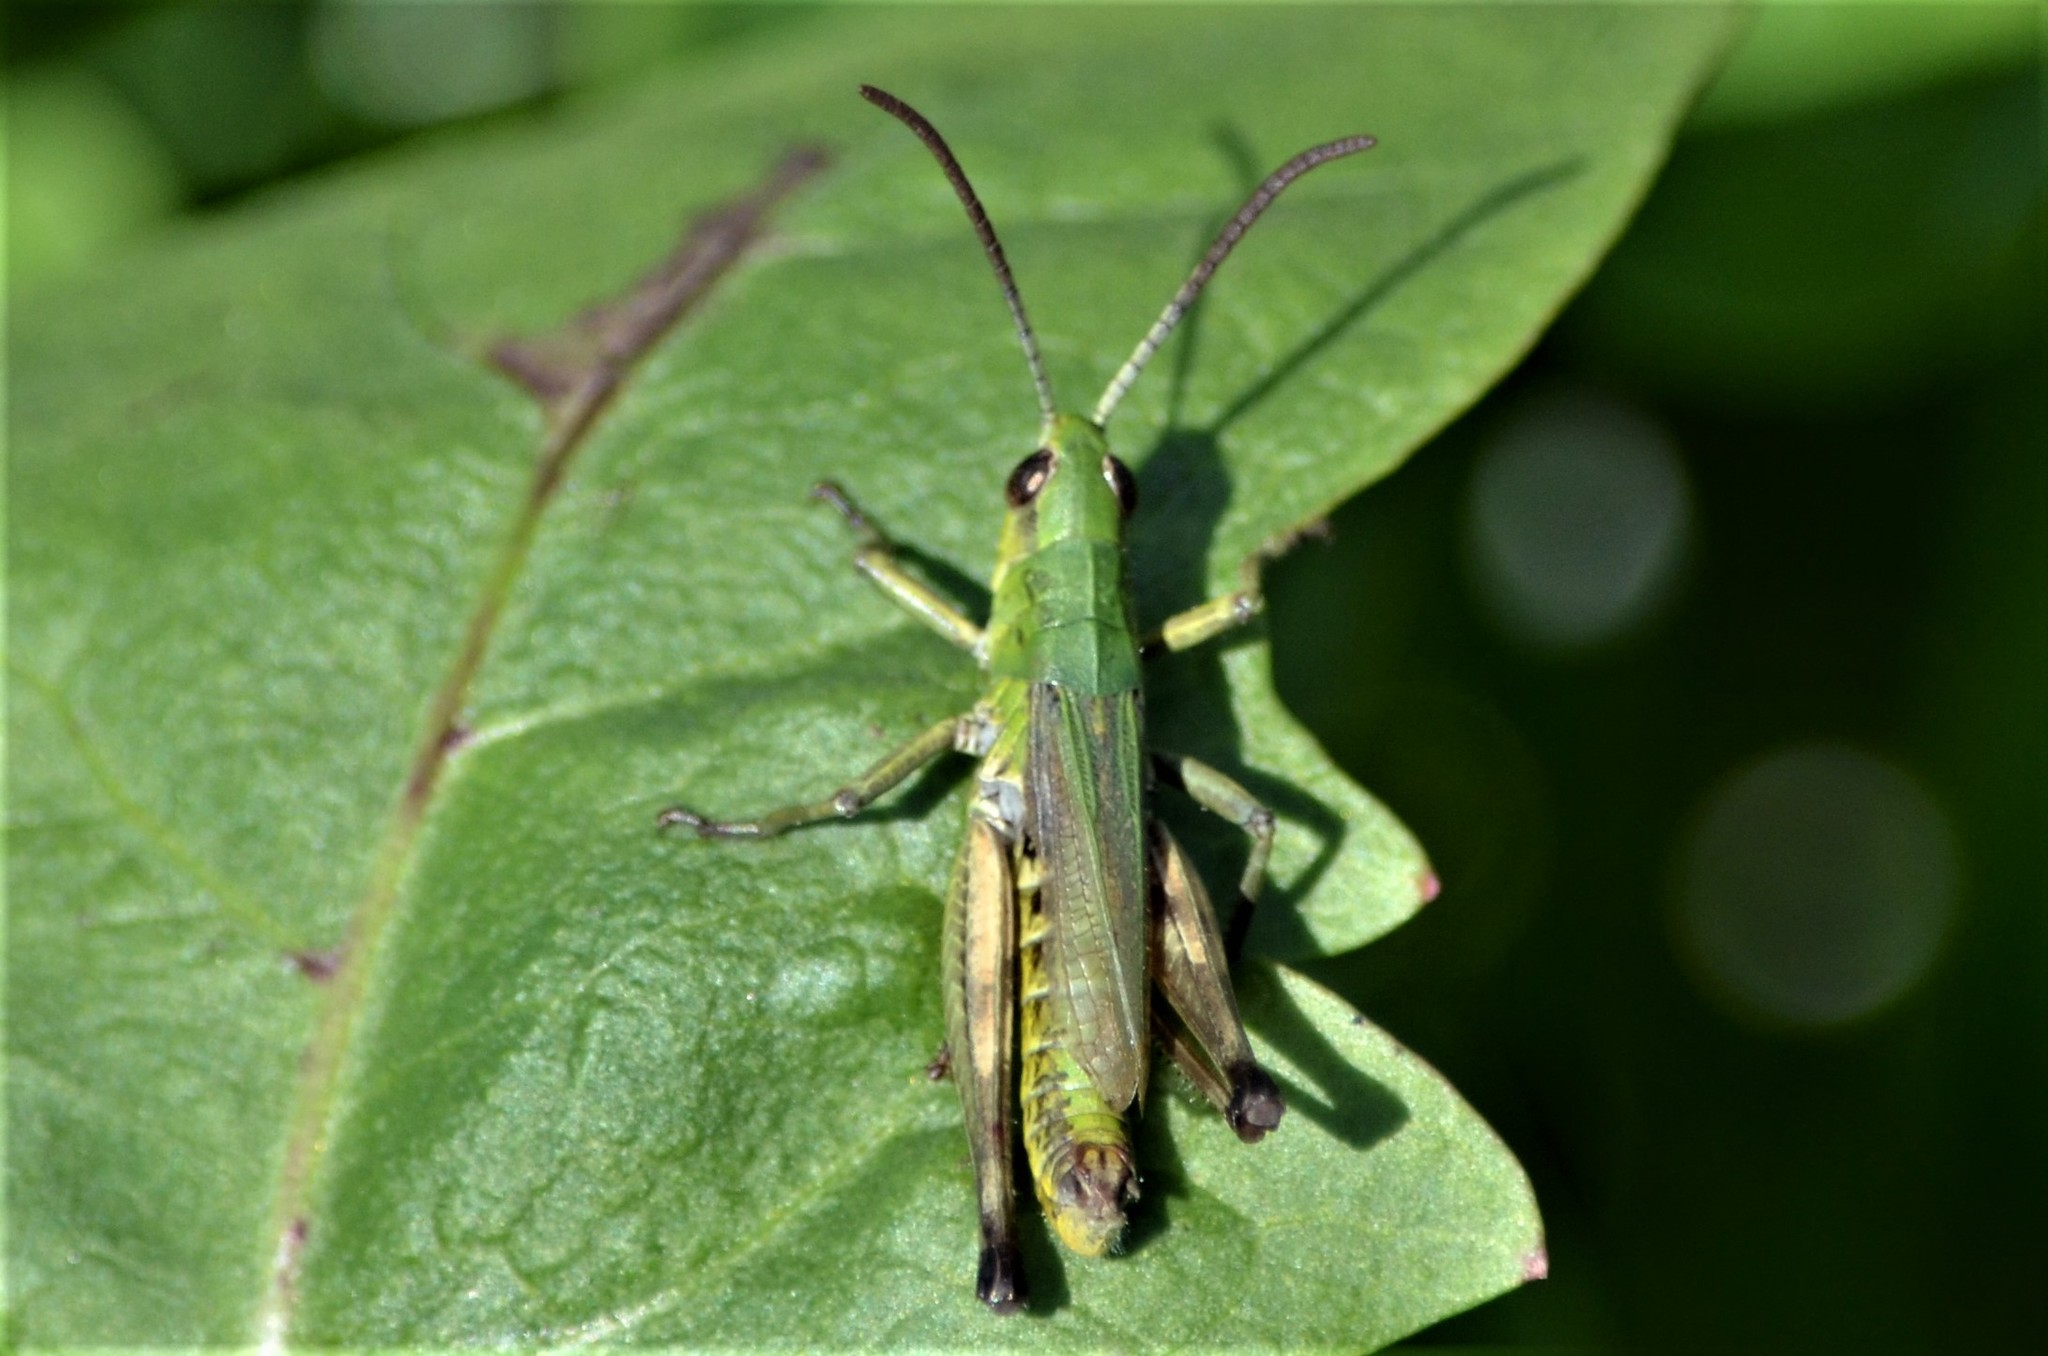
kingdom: Animalia
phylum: Arthropoda
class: Insecta
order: Orthoptera
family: Acrididae
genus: Pseudochorthippus
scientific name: Pseudochorthippus parallelus
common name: Meadow grasshopper
